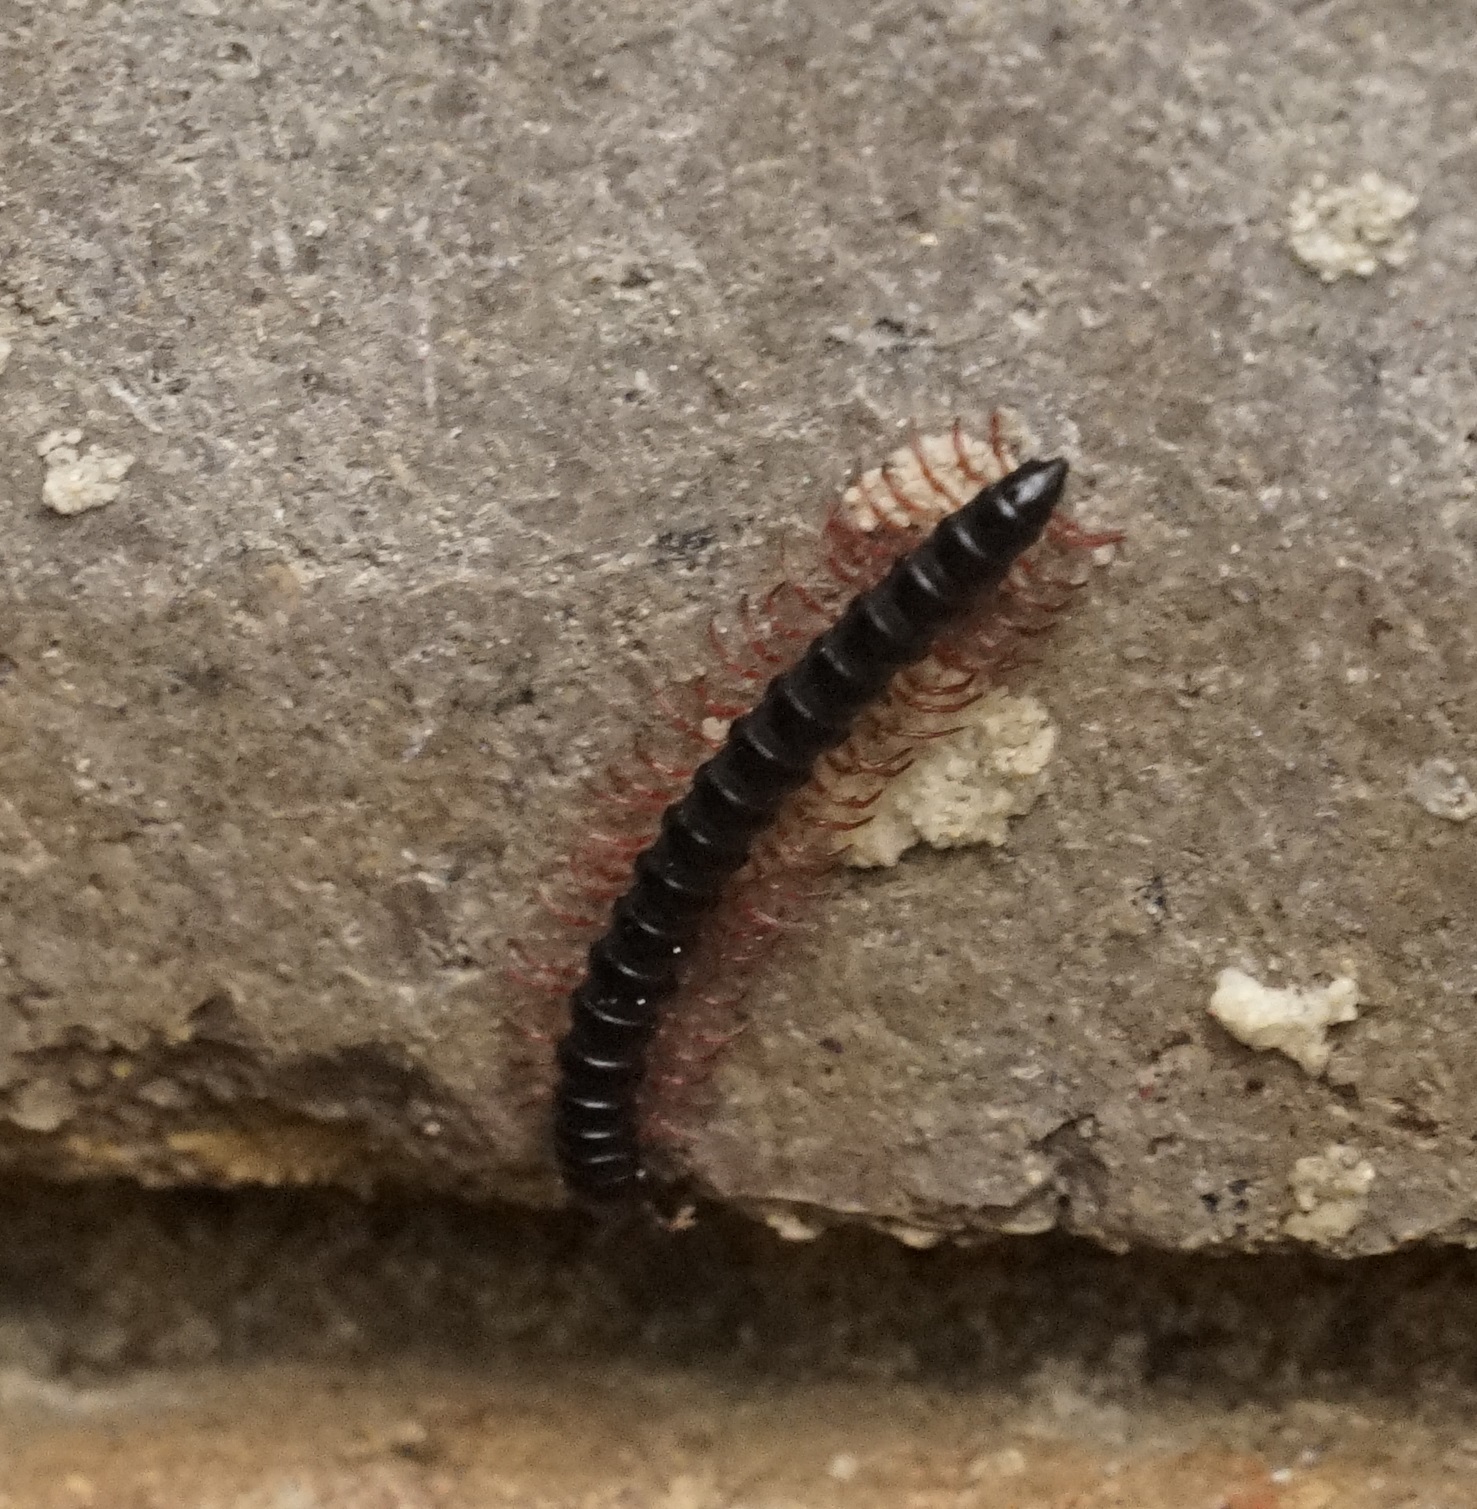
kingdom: Animalia
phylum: Arthropoda
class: Diplopoda
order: Polydesmida
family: Paradoxosomatidae
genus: Heterocladosoma
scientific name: Heterocladosoma
